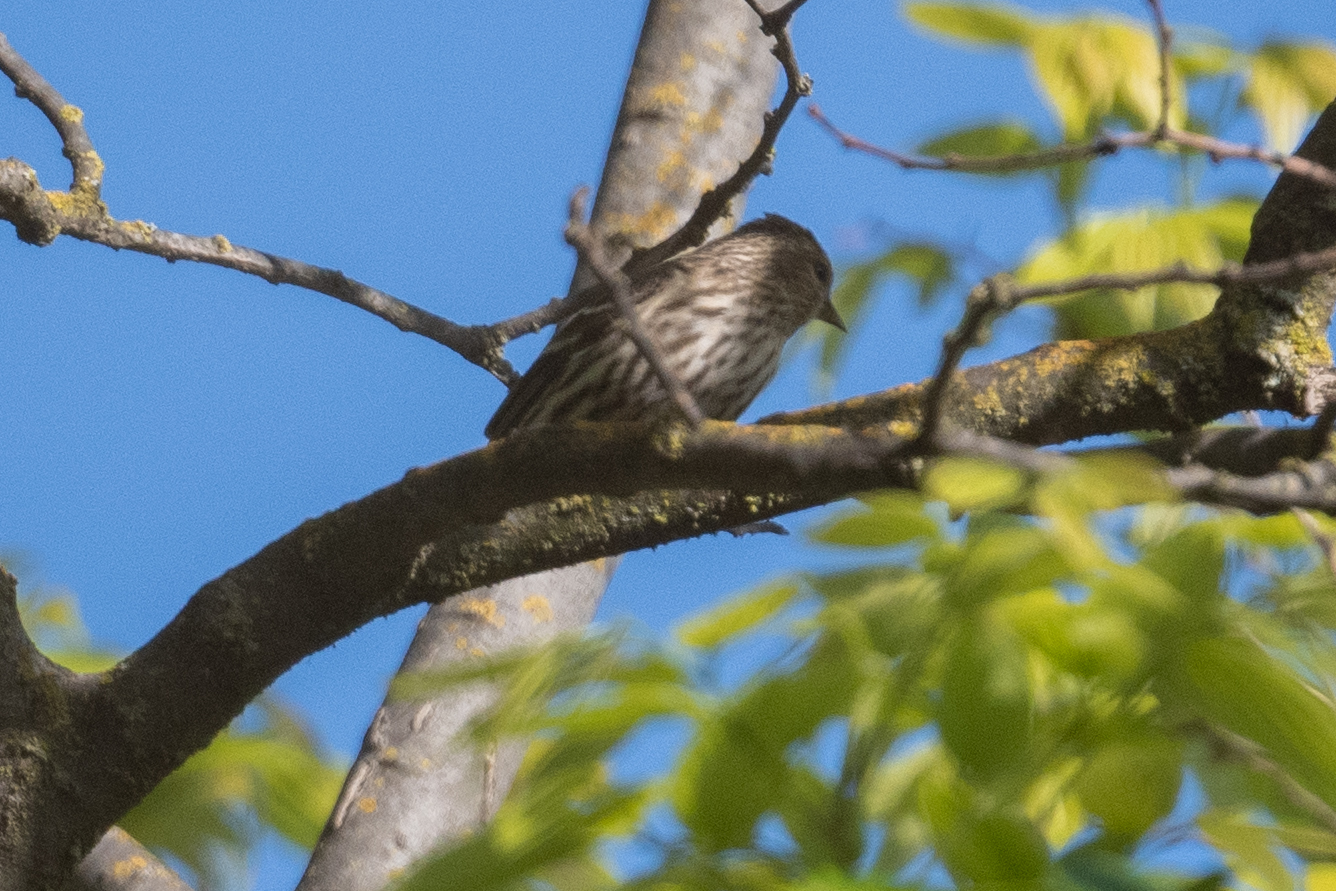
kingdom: Animalia
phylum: Chordata
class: Aves
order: Passeriformes
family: Fringillidae
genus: Spinus
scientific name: Spinus pinus
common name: Pine siskin
